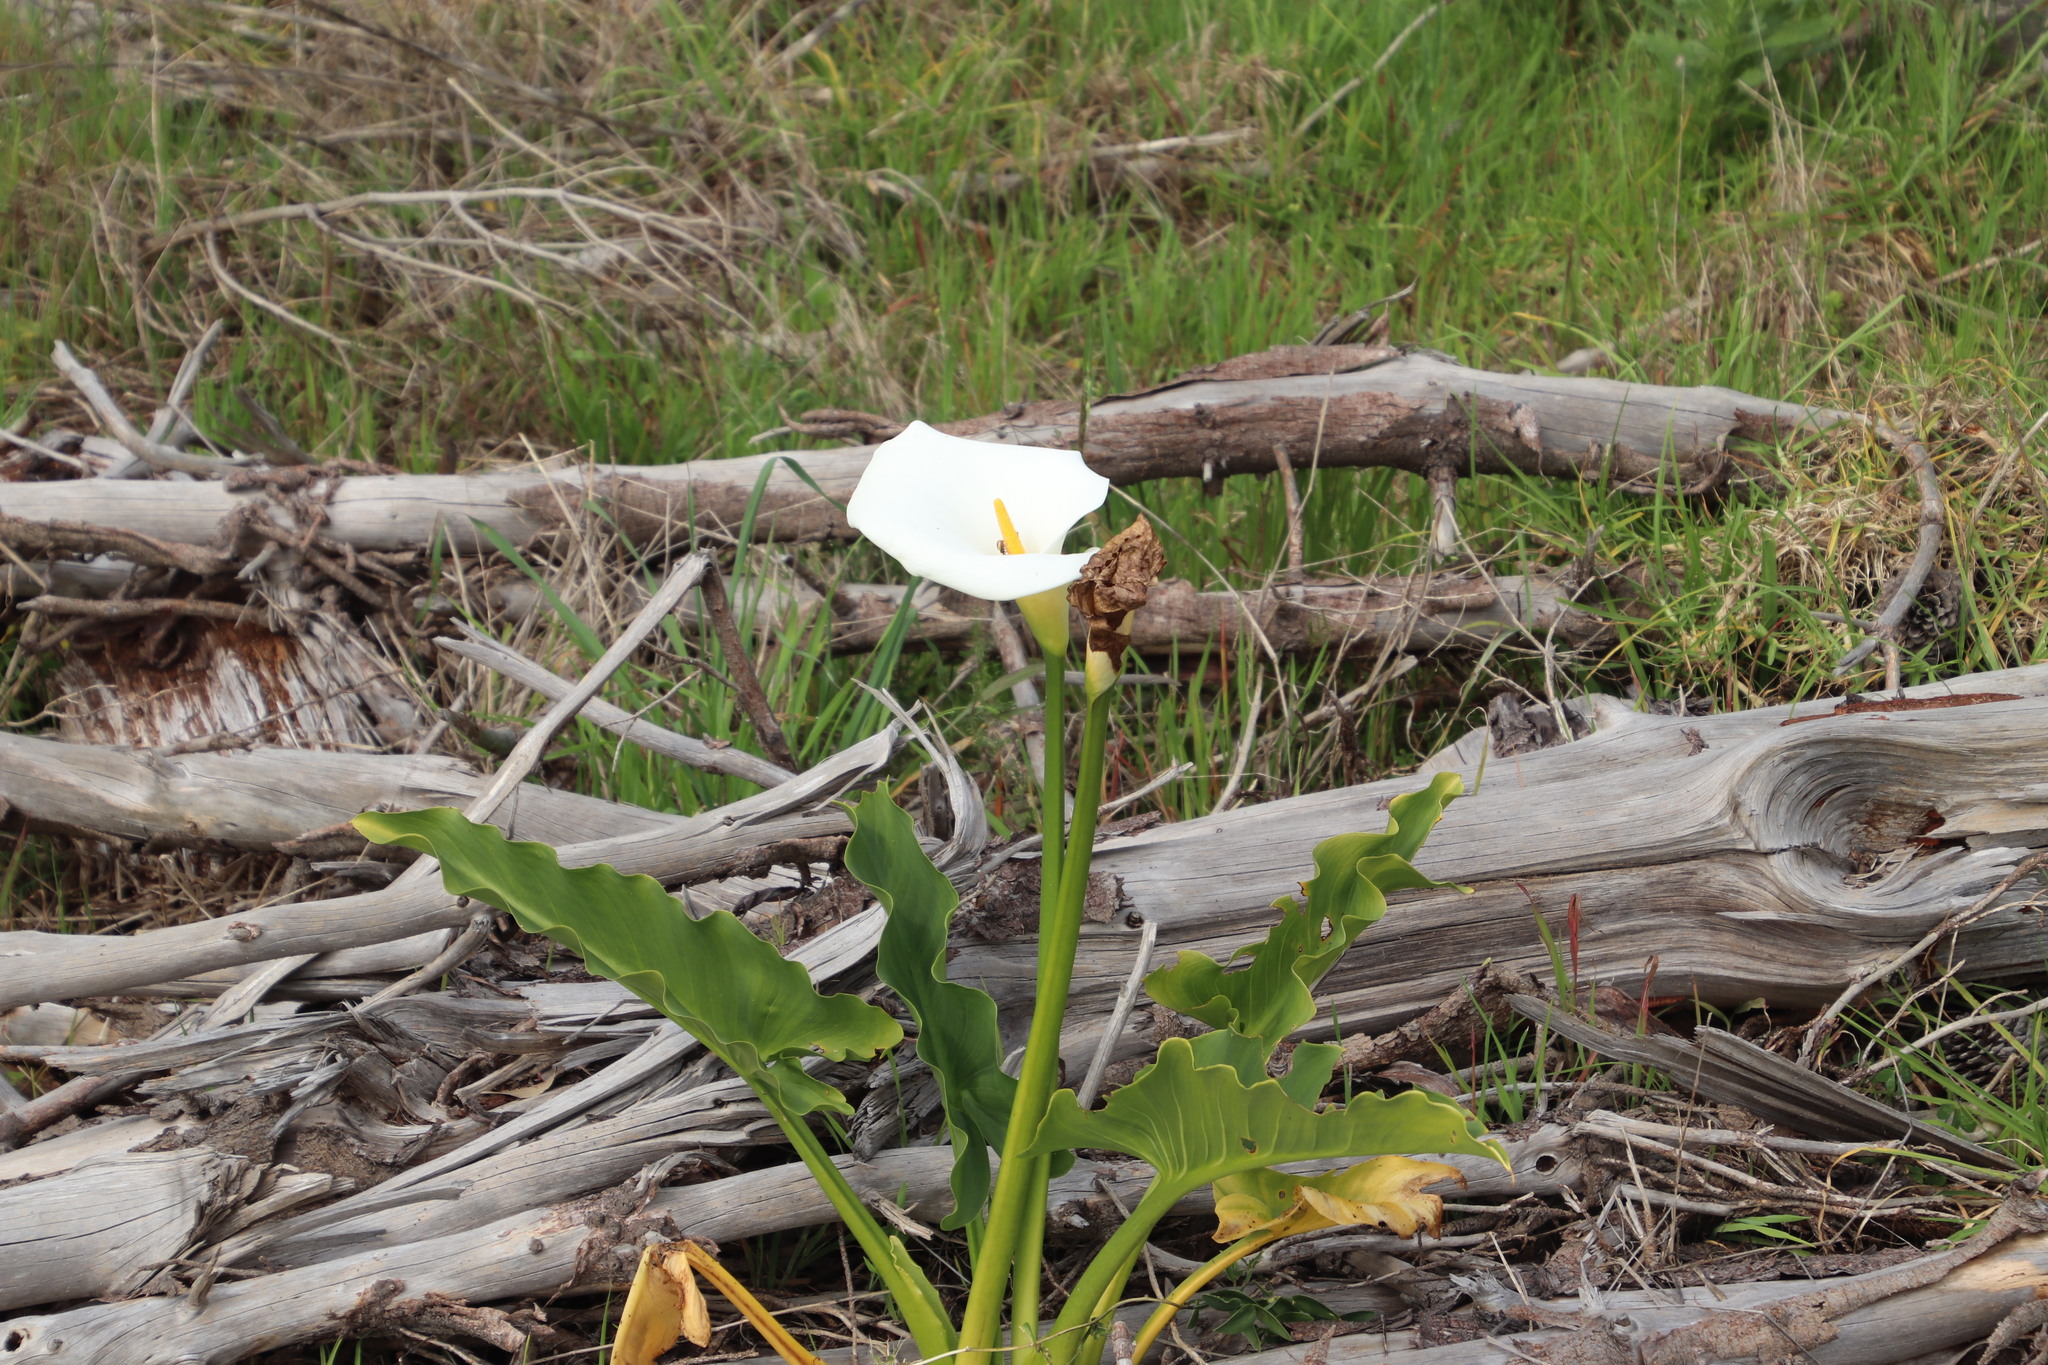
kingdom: Plantae
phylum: Tracheophyta
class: Liliopsida
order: Alismatales
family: Araceae
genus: Zantedeschia
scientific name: Zantedeschia aethiopica
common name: Altar-lily
